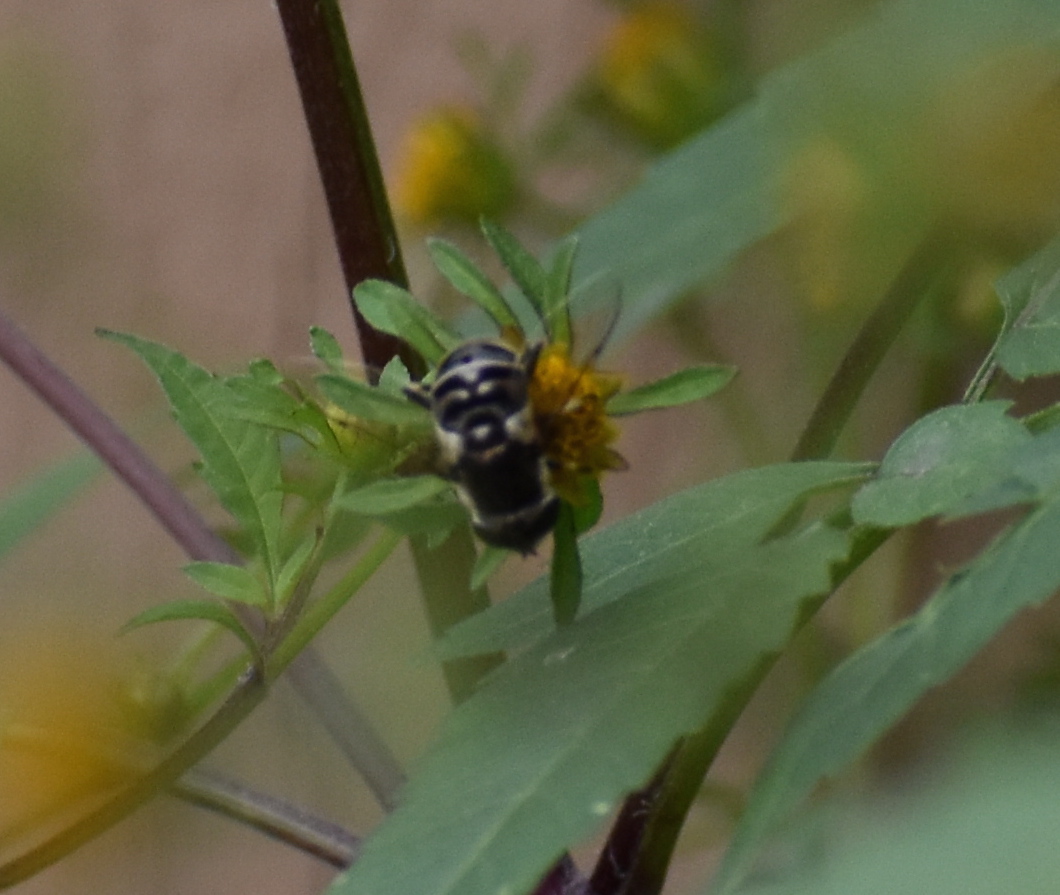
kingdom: Animalia
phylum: Arthropoda
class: Insecta
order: Diptera
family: Syrphidae
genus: Eristalis
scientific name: Eristalis dimidiata
